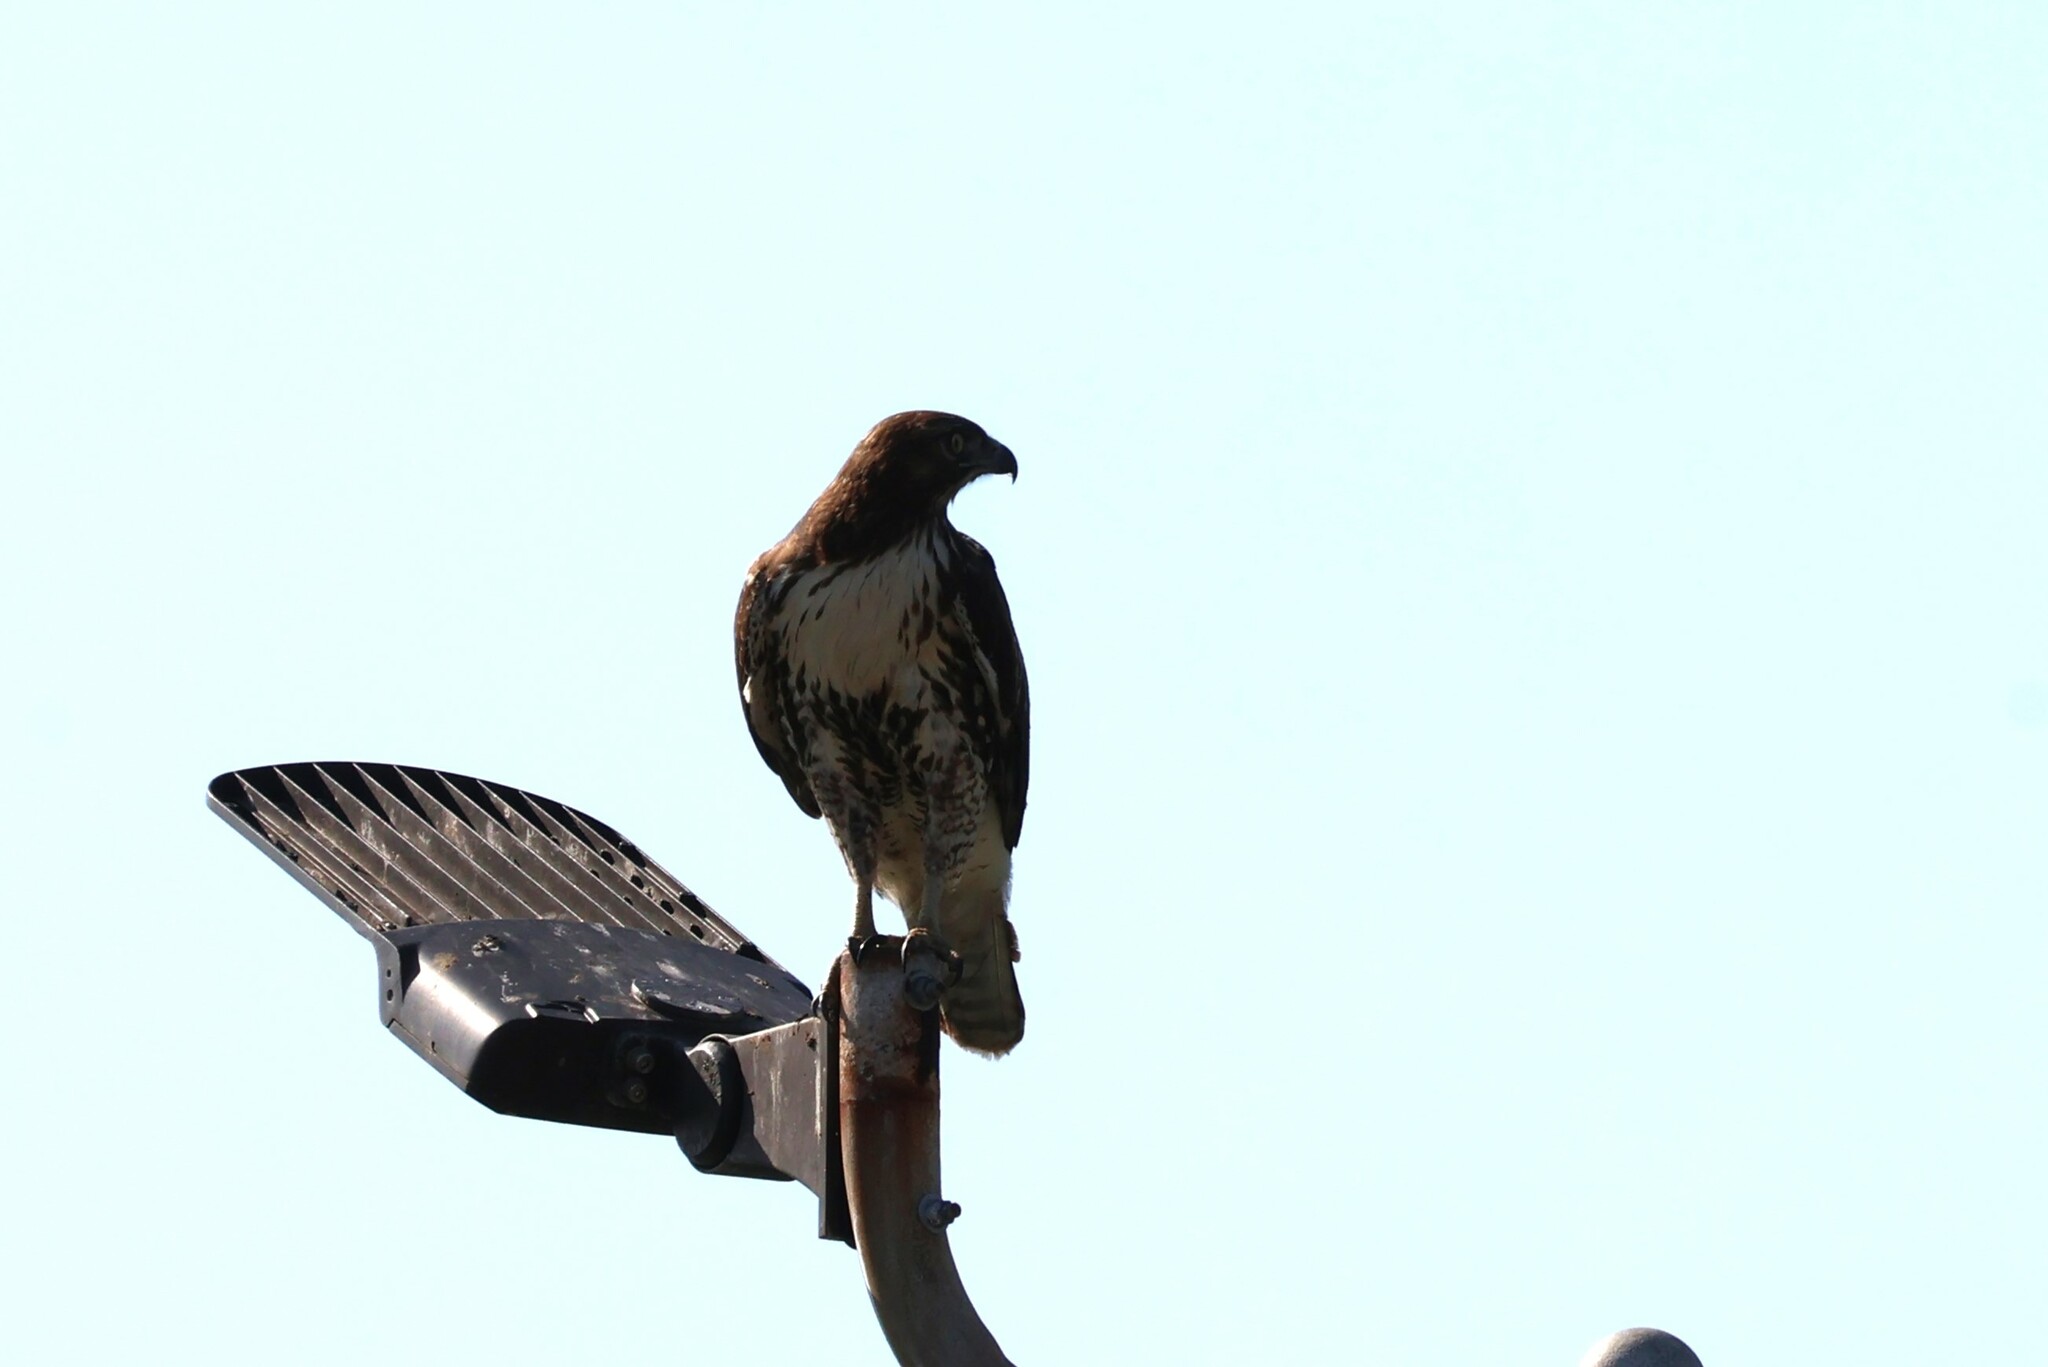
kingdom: Animalia
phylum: Chordata
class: Aves
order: Accipitriformes
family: Accipitridae
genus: Buteo
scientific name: Buteo jamaicensis
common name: Red-tailed hawk
